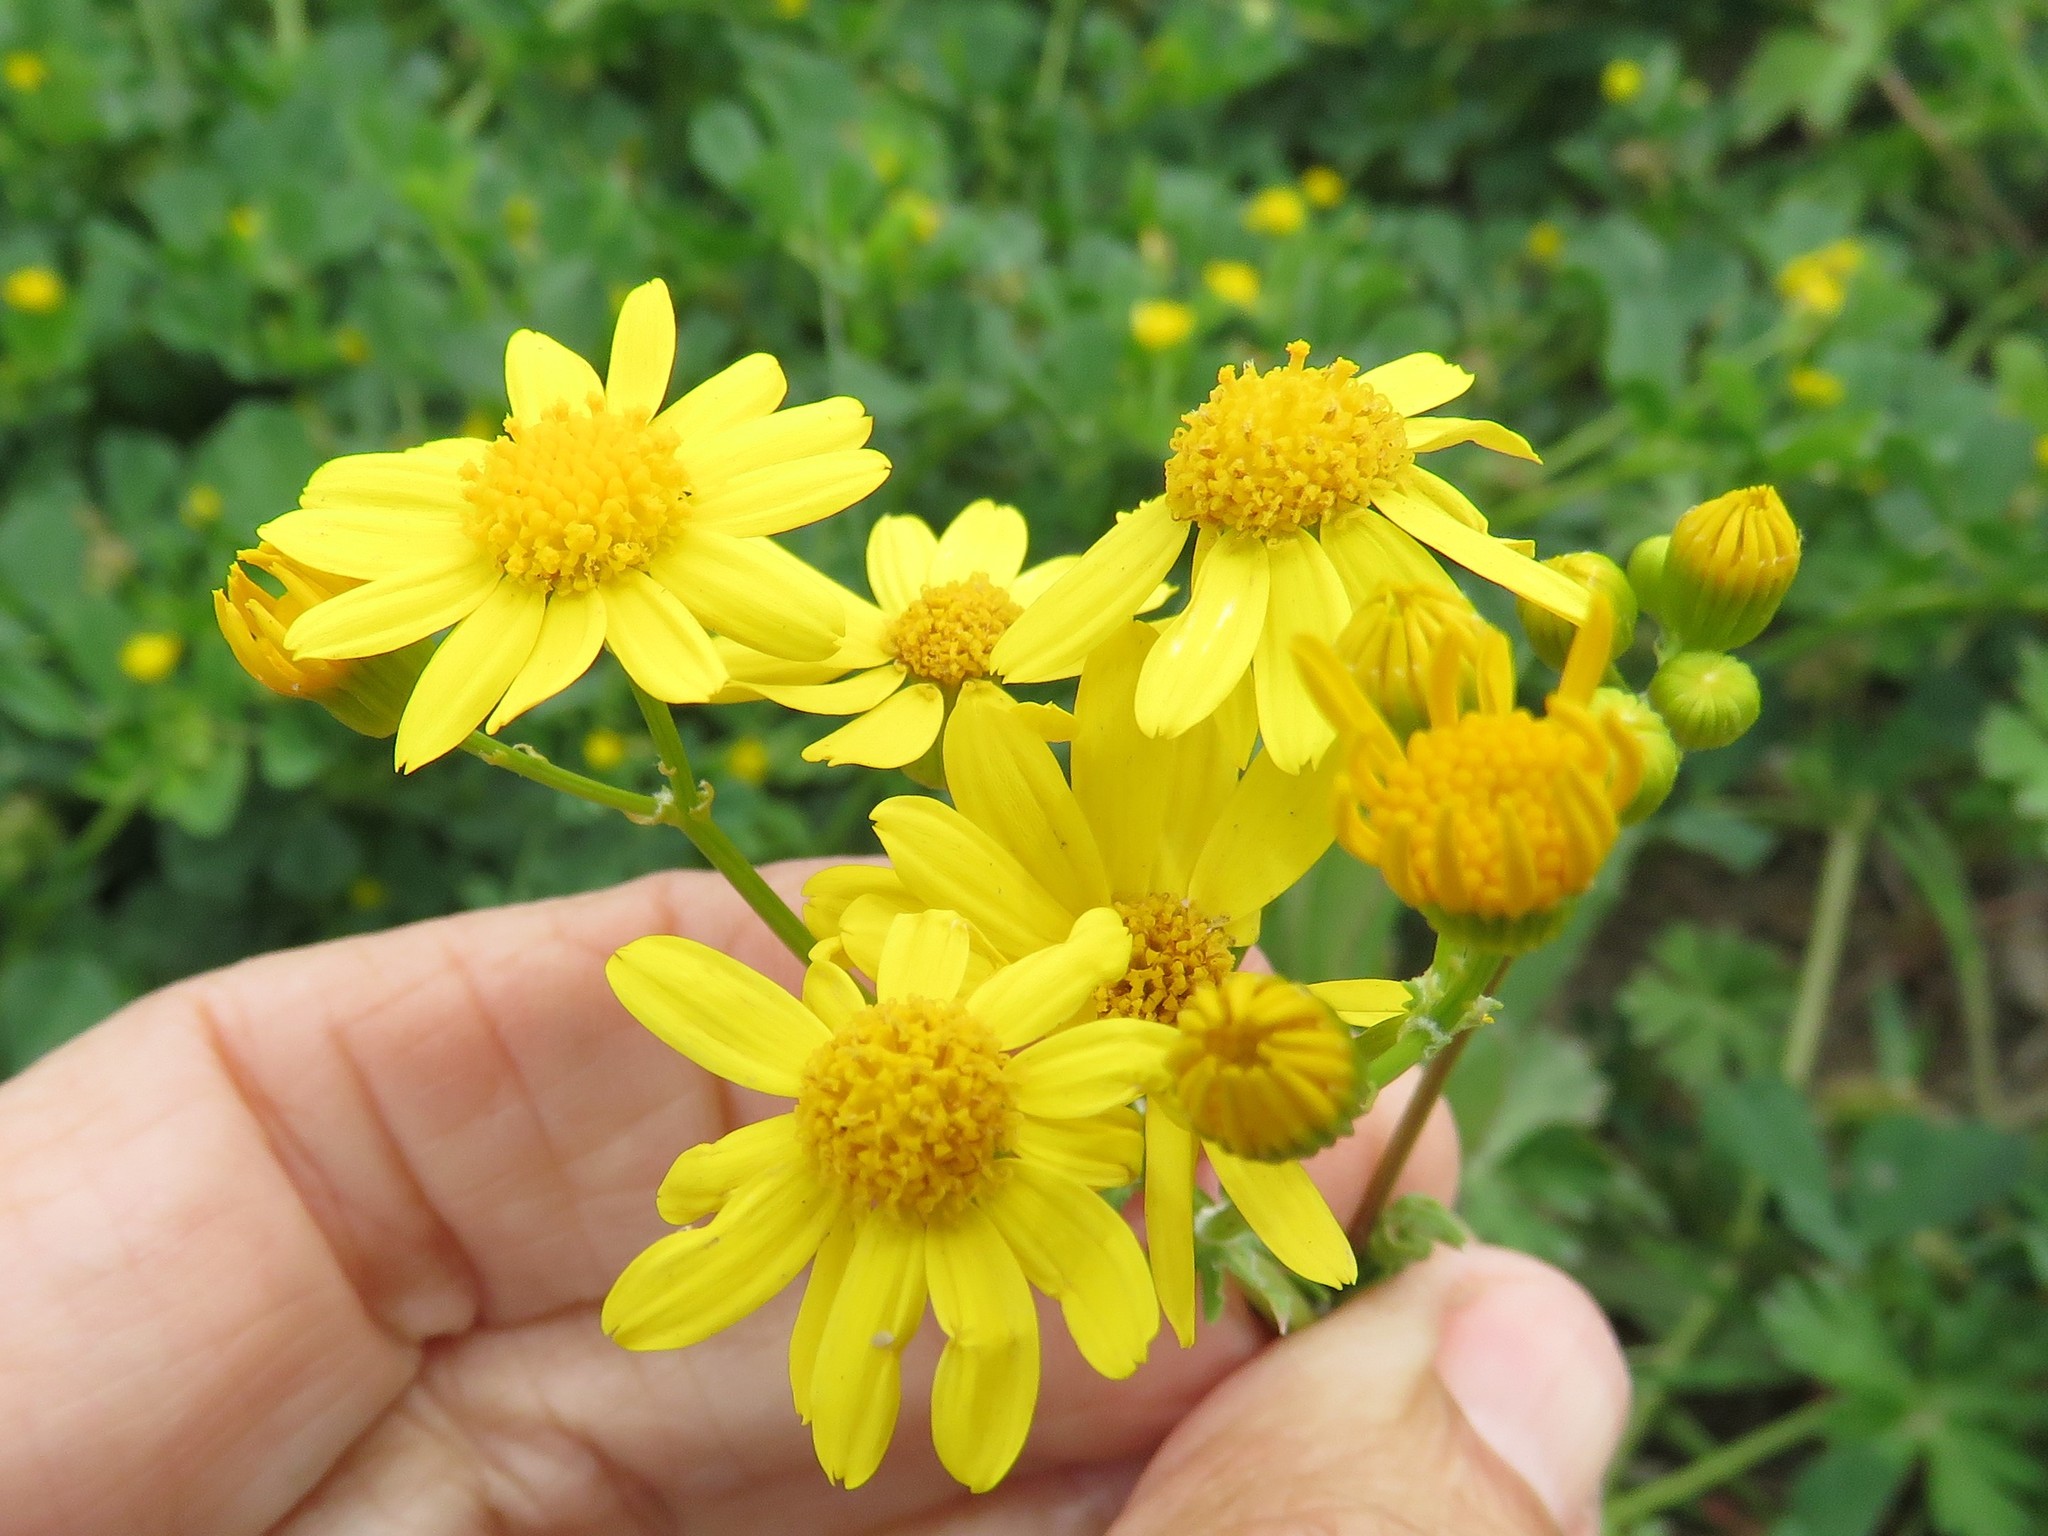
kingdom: Plantae
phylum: Tracheophyta
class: Magnoliopsida
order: Asterales
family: Asteraceae
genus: Packera
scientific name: Packera tampicana
